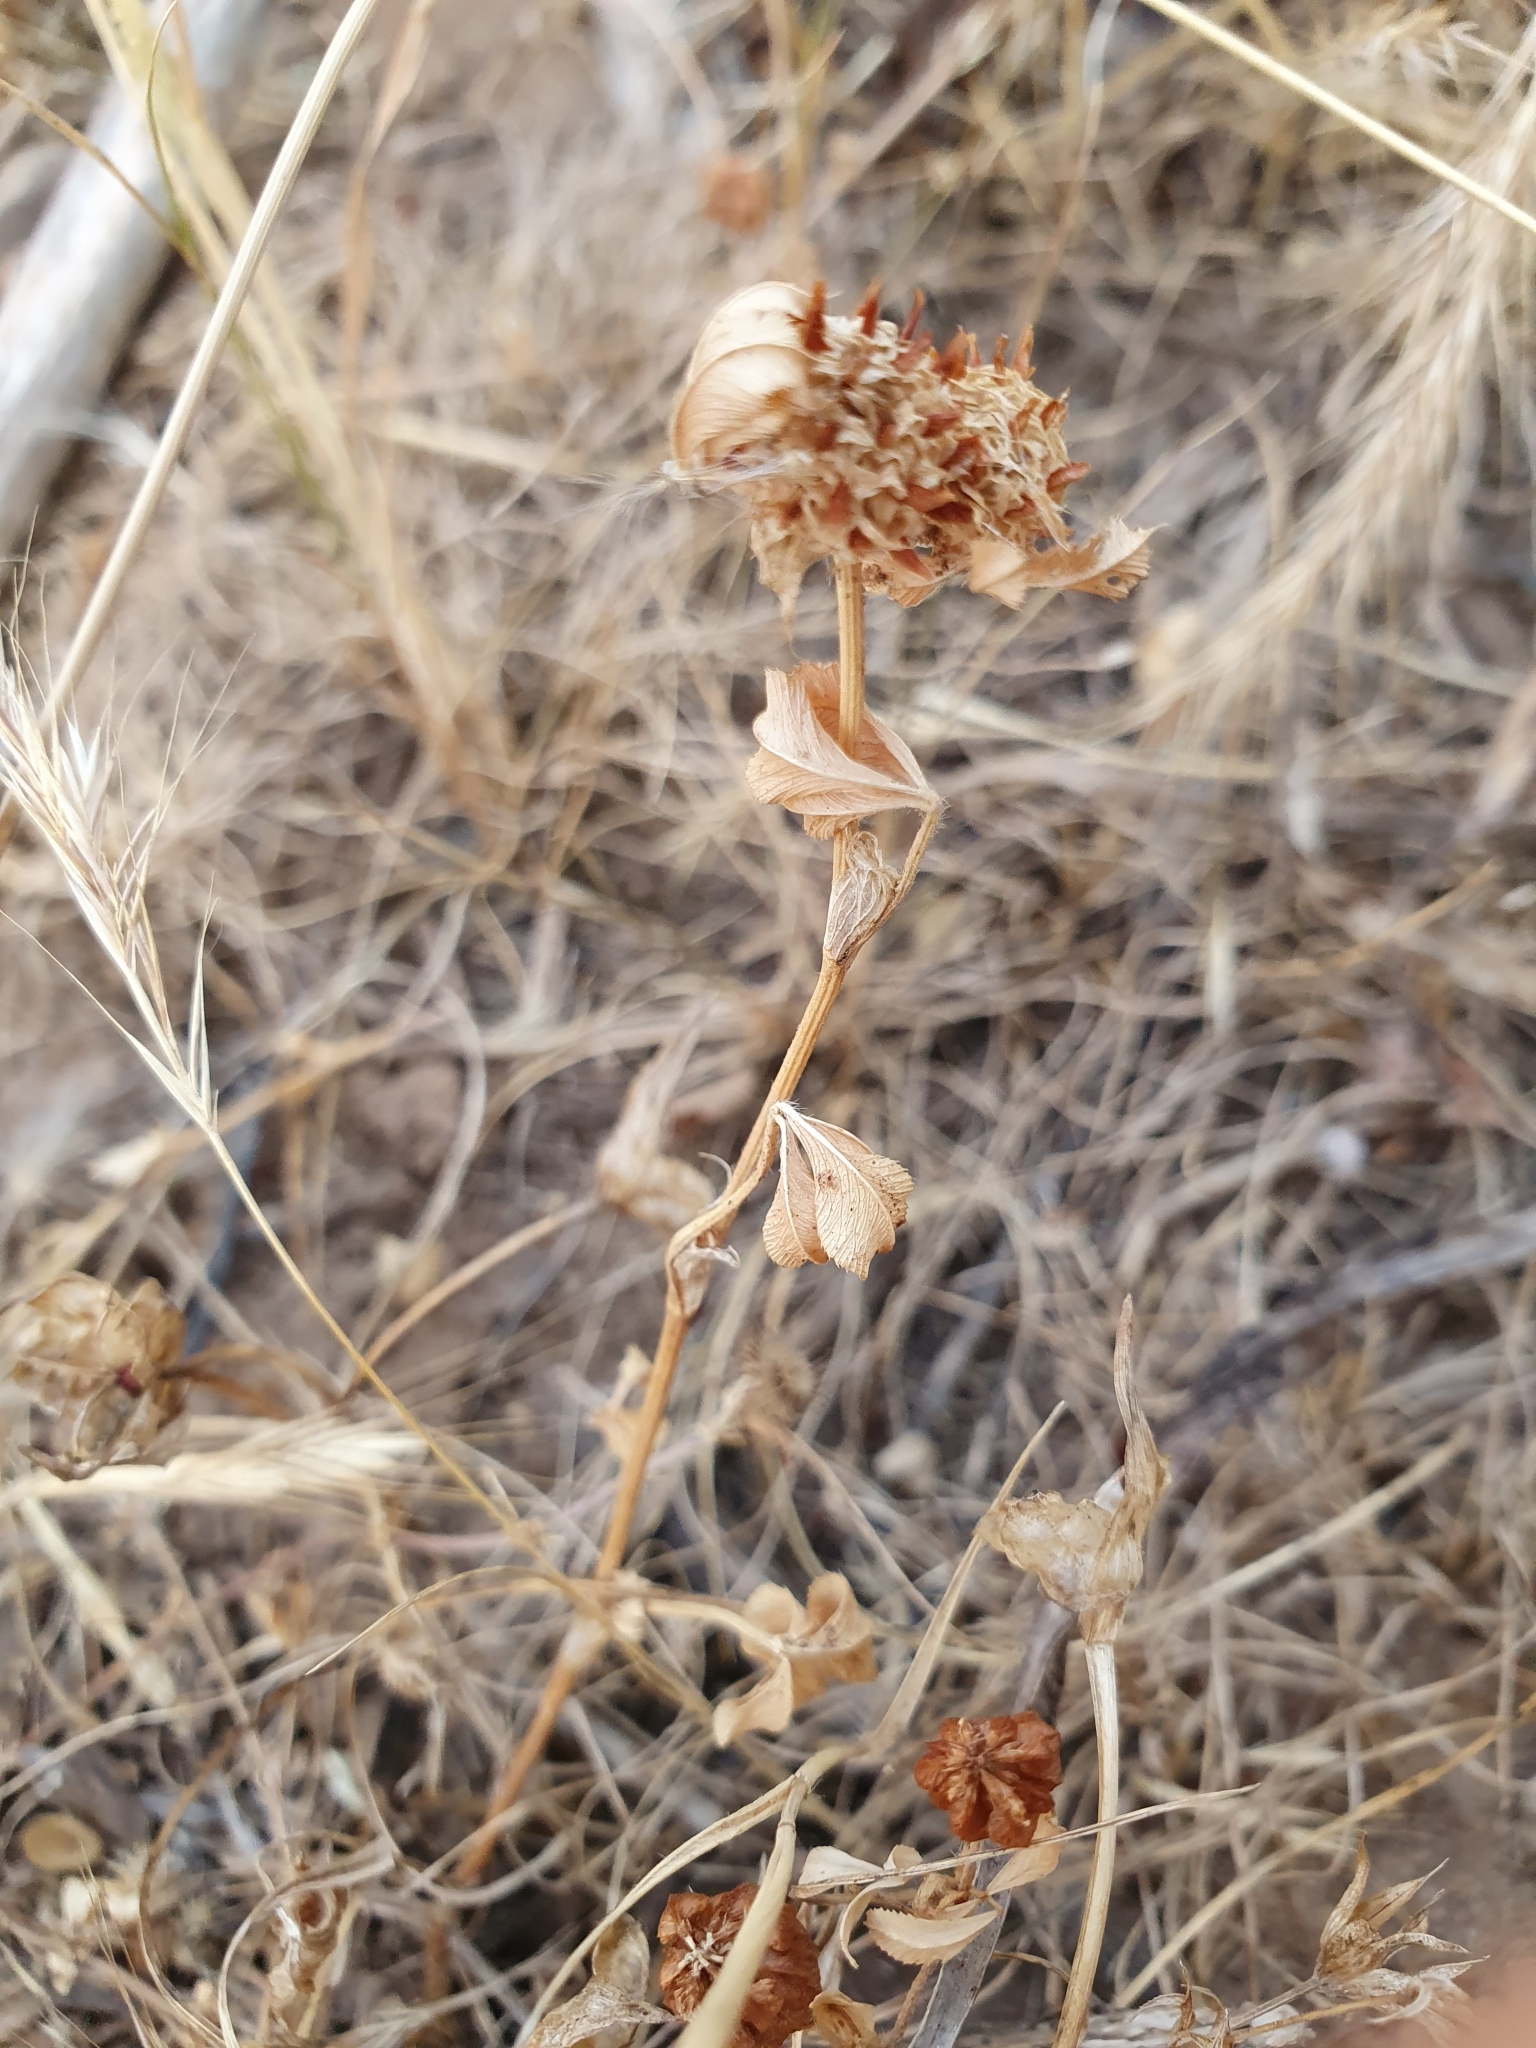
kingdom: Plantae
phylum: Tracheophyta
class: Magnoliopsida
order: Fabales
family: Fabaceae
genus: Trifolium
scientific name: Trifolium glomeratum
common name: Clustered clover
